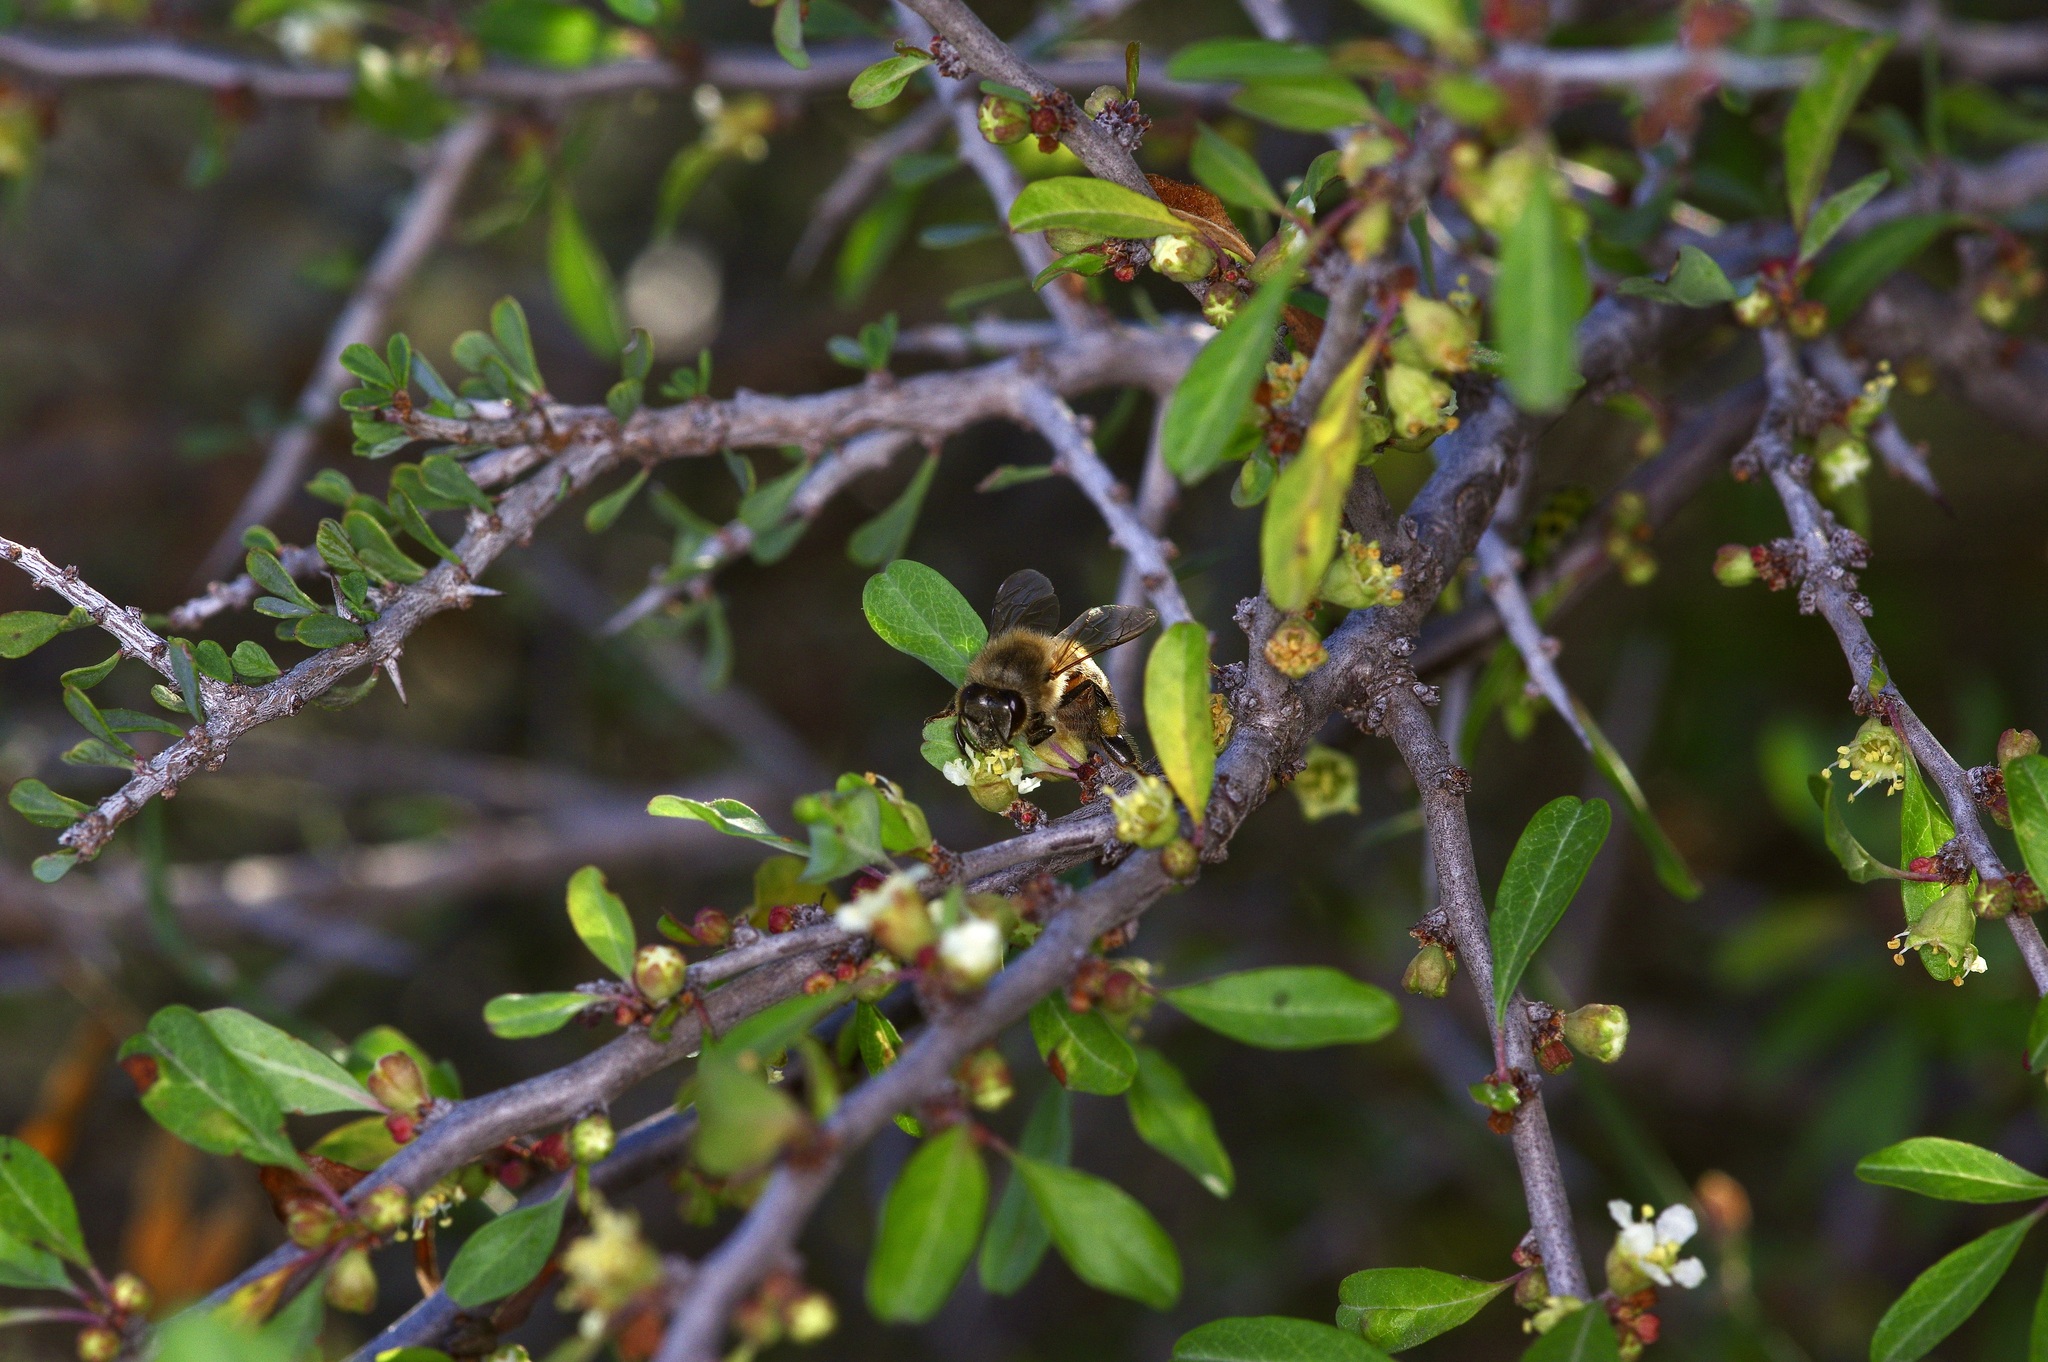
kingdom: Animalia
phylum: Arthropoda
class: Insecta
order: Hymenoptera
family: Apidae
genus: Apis
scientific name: Apis mellifera
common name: Honey bee
